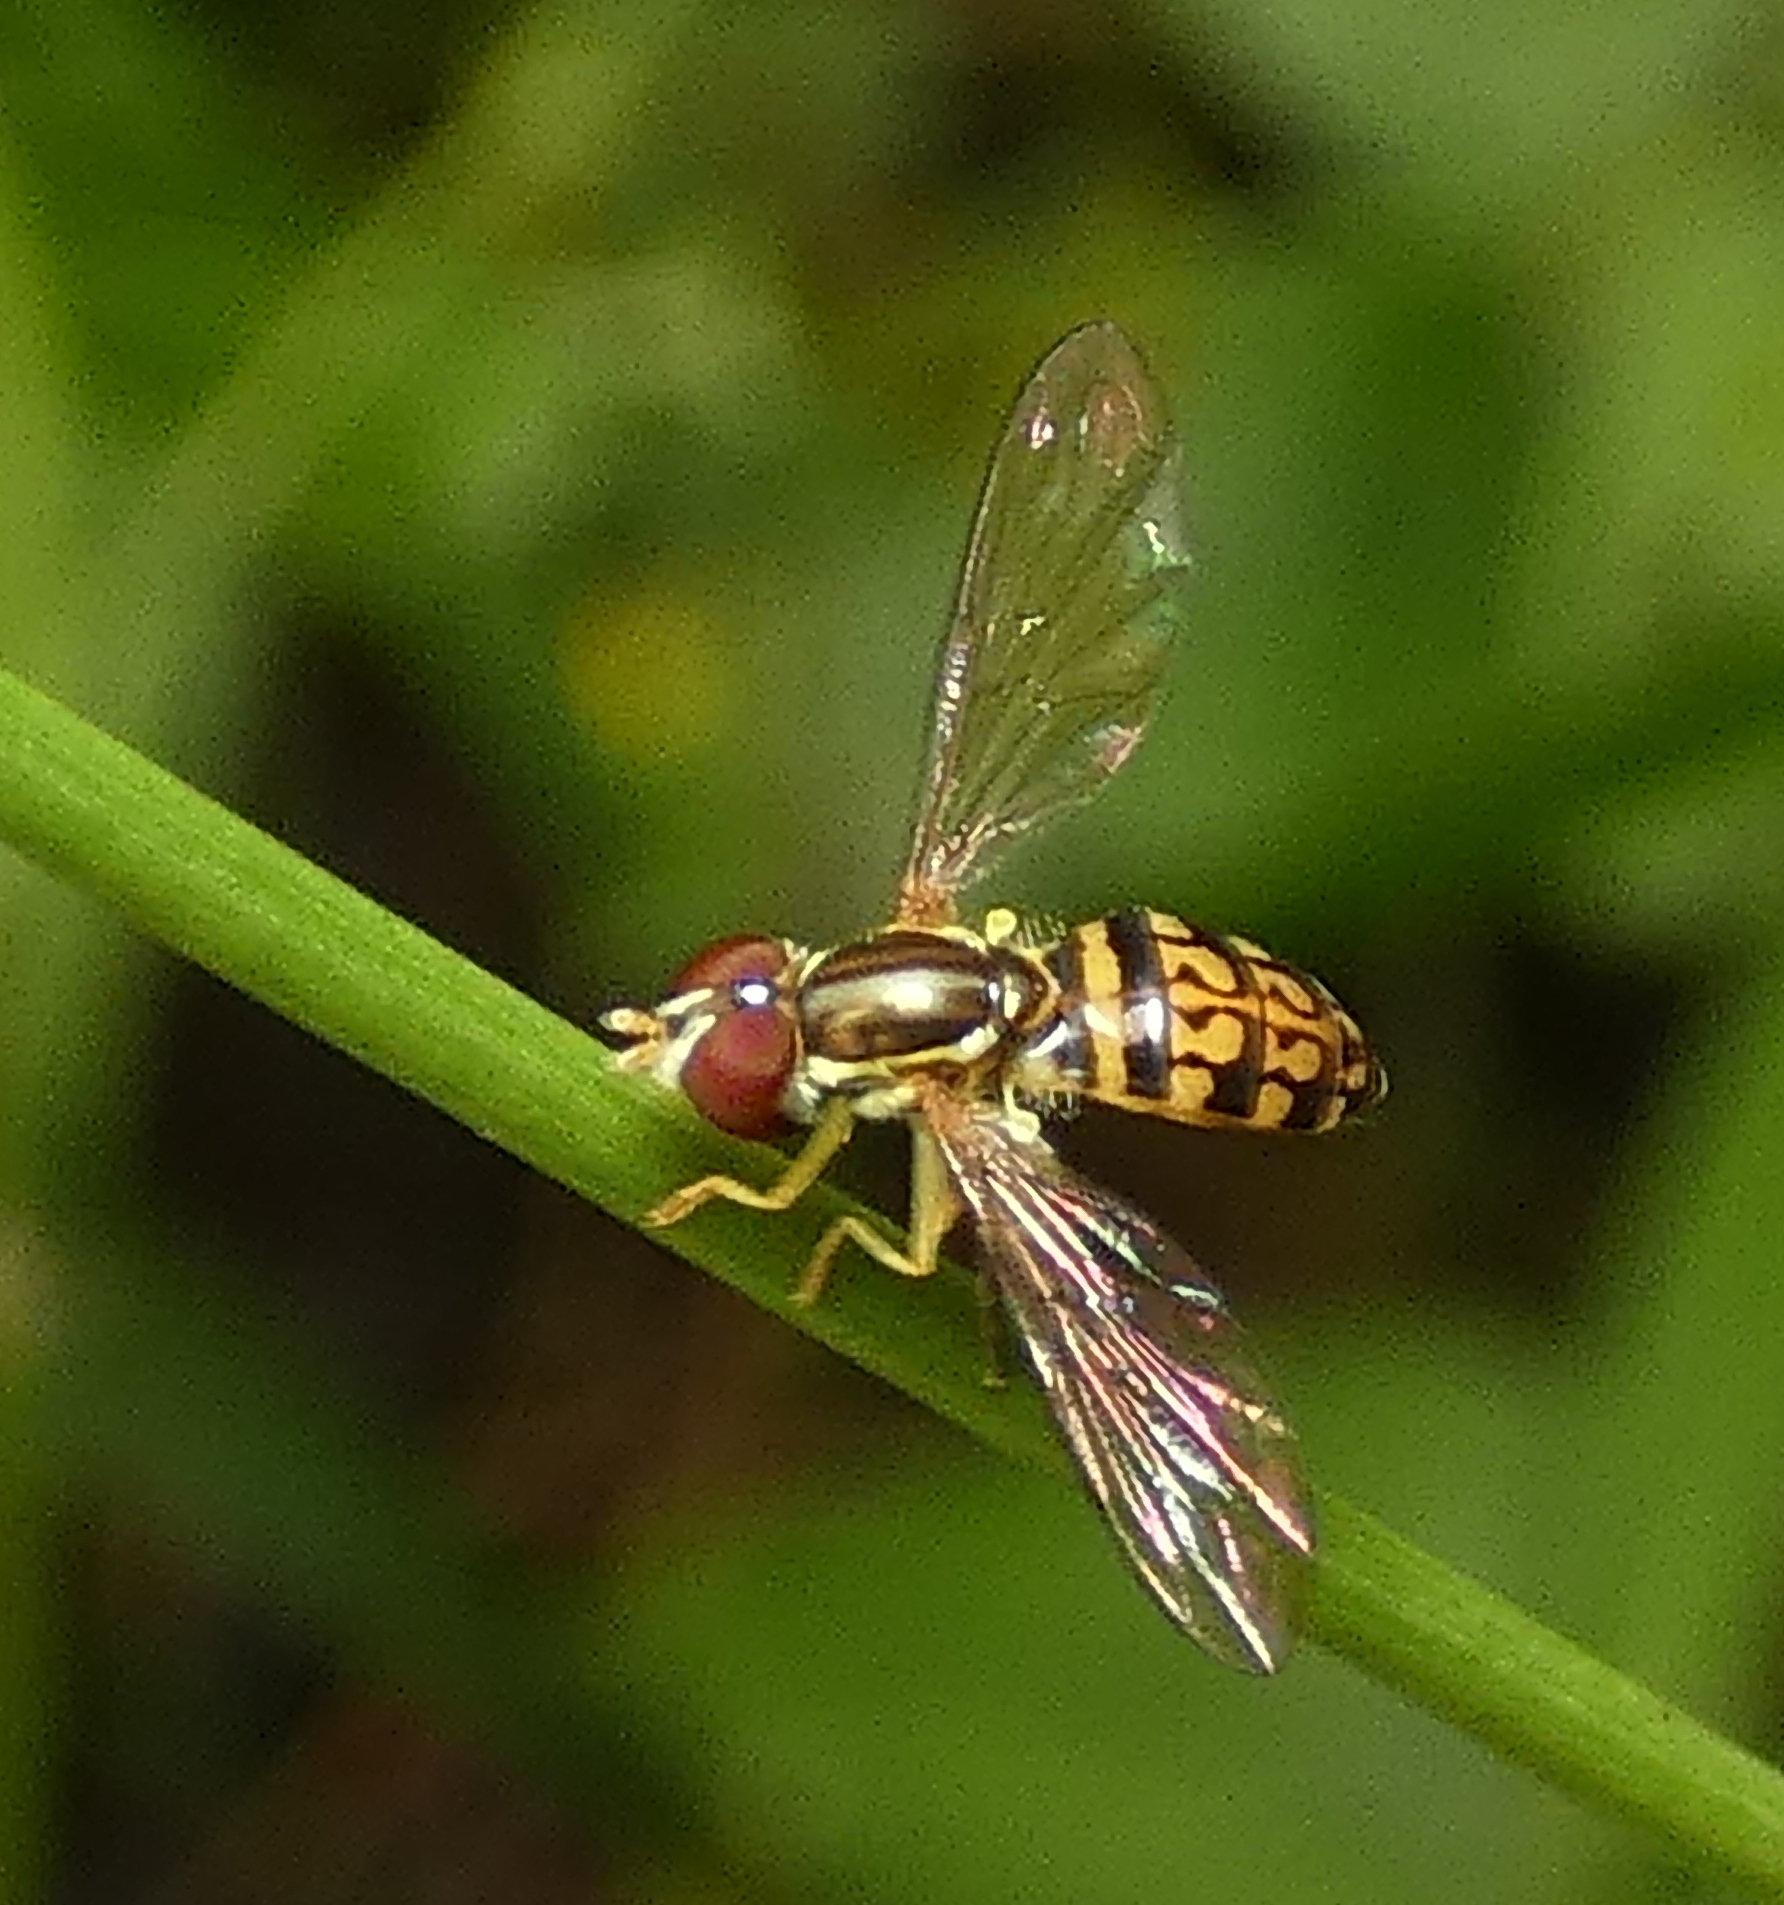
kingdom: Animalia
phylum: Arthropoda
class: Insecta
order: Diptera
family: Syrphidae
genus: Toxomerus
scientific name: Toxomerus pictus
